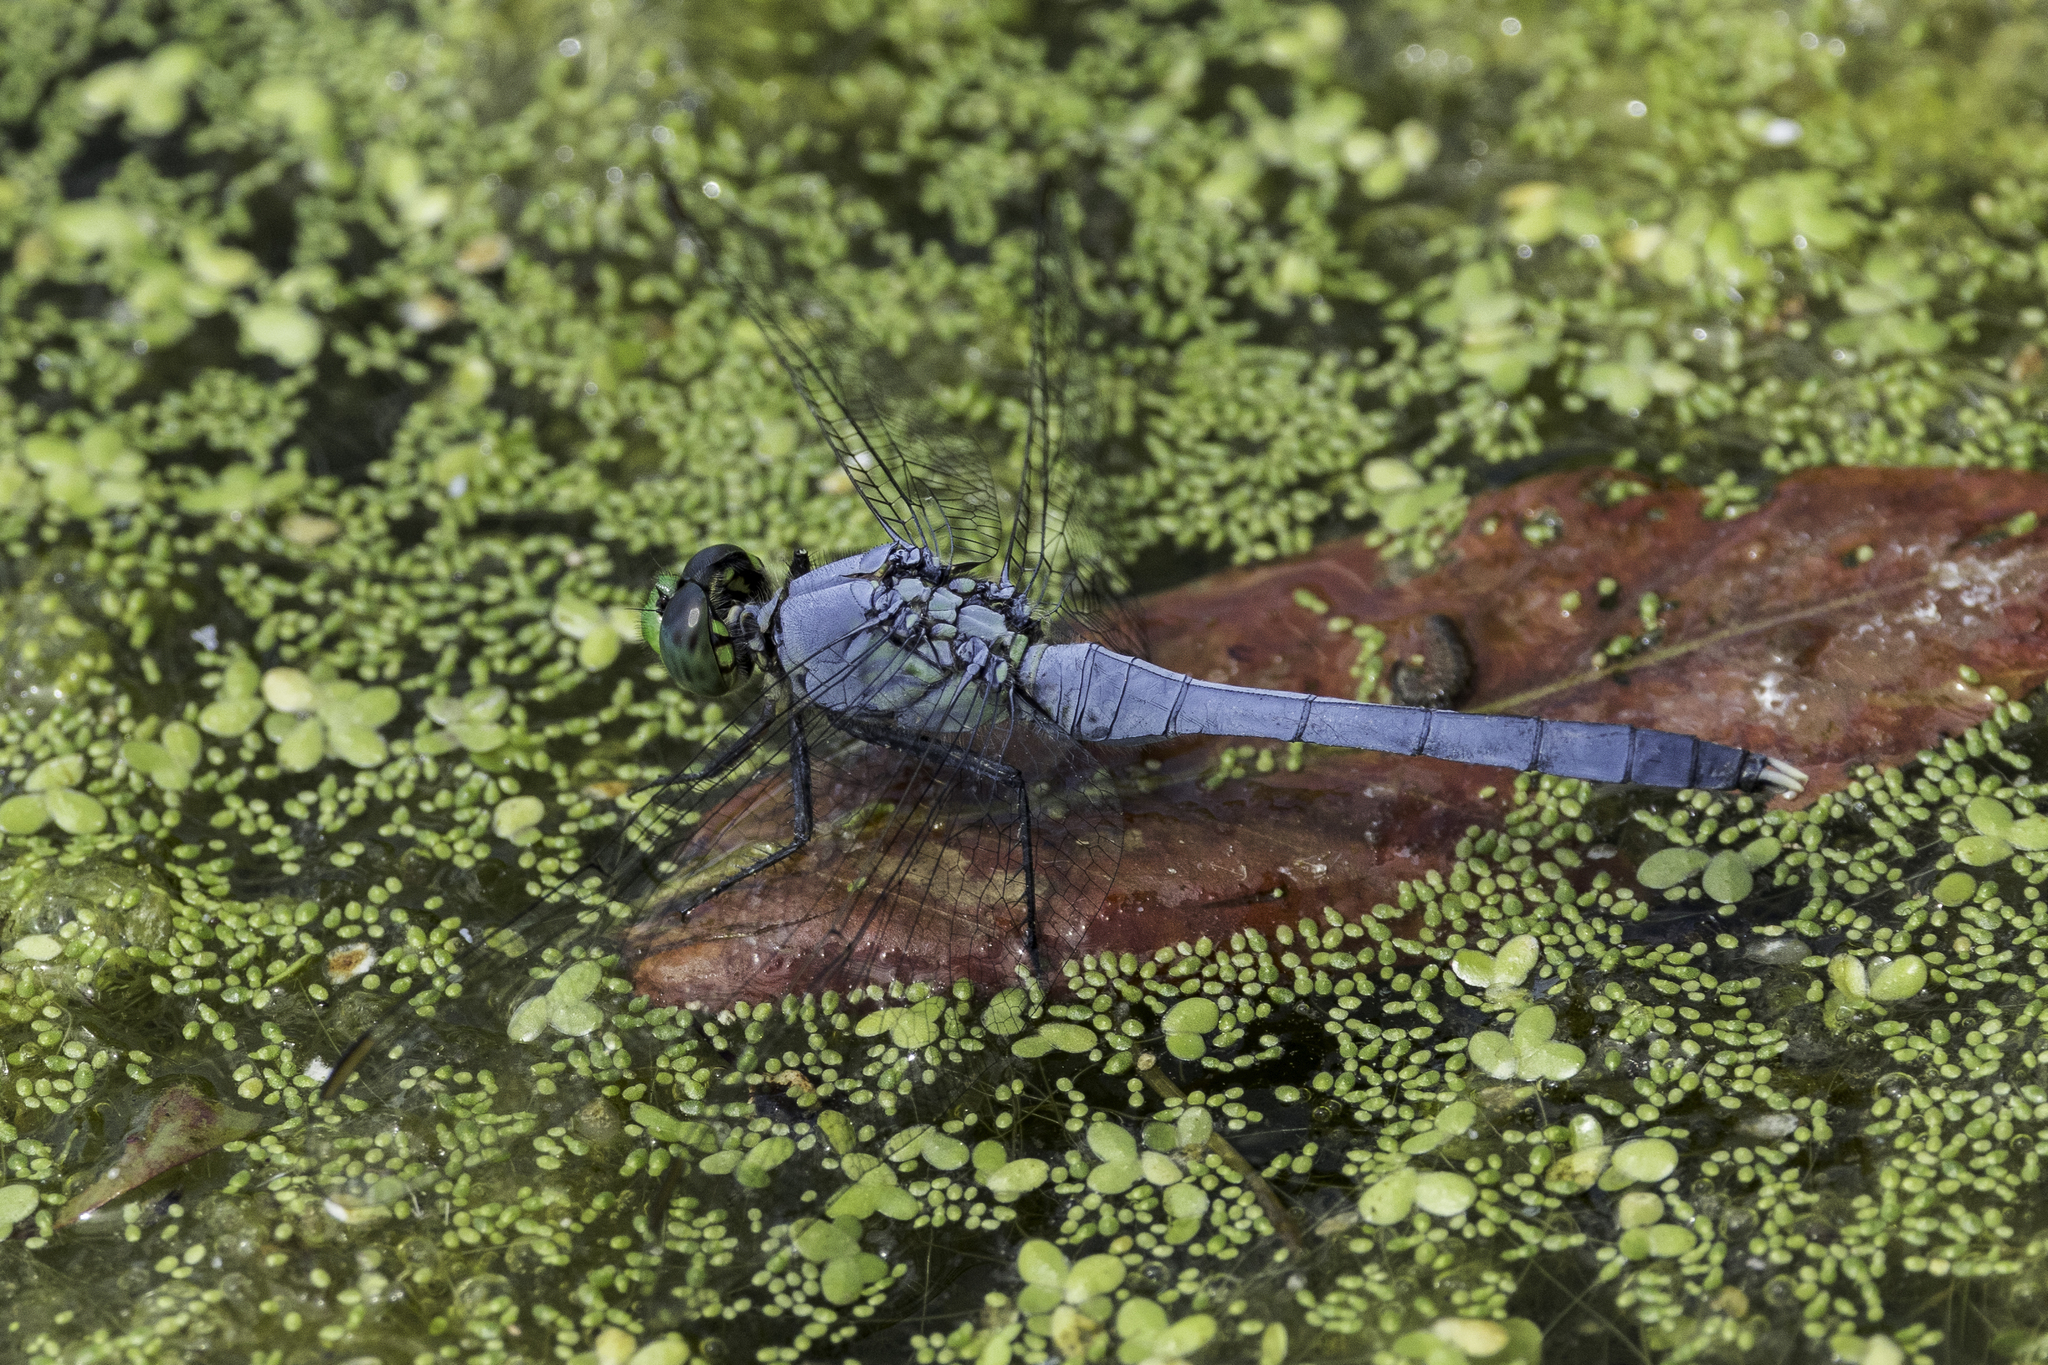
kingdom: Animalia
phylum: Arthropoda
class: Insecta
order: Odonata
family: Libellulidae
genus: Erythemis
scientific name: Erythemis simplicicollis
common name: Eastern pondhawk
